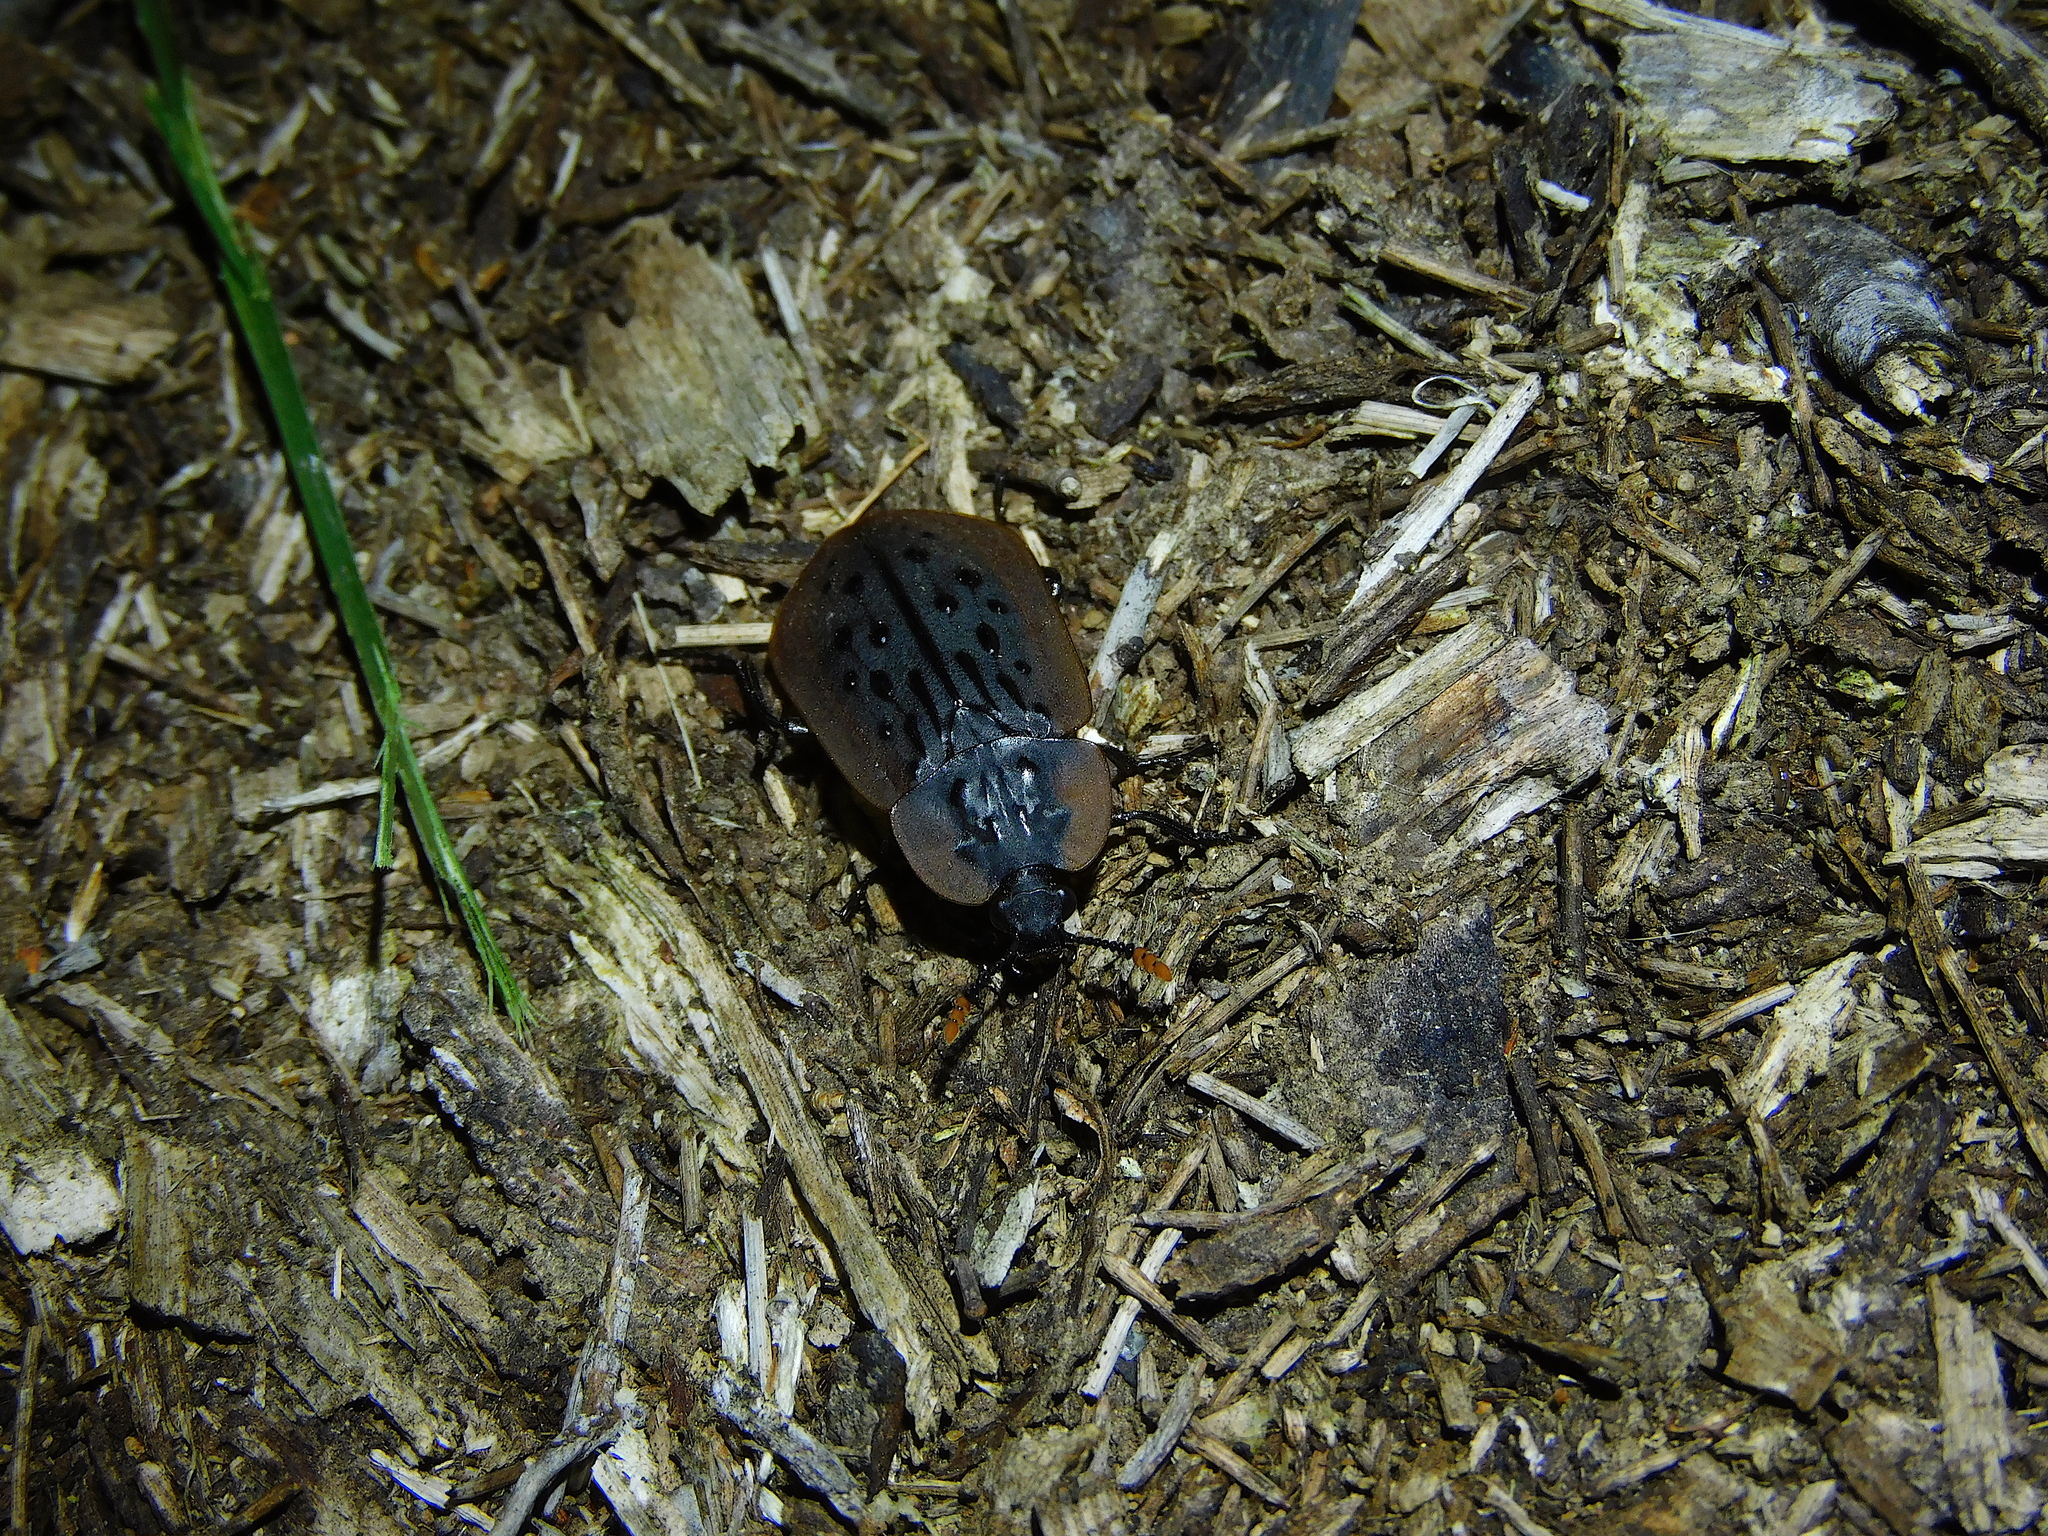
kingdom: Animalia
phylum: Arthropoda
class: Insecta
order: Coleoptera
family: Staphylinidae
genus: Ptomaphila
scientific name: Ptomaphila lacrymosa
